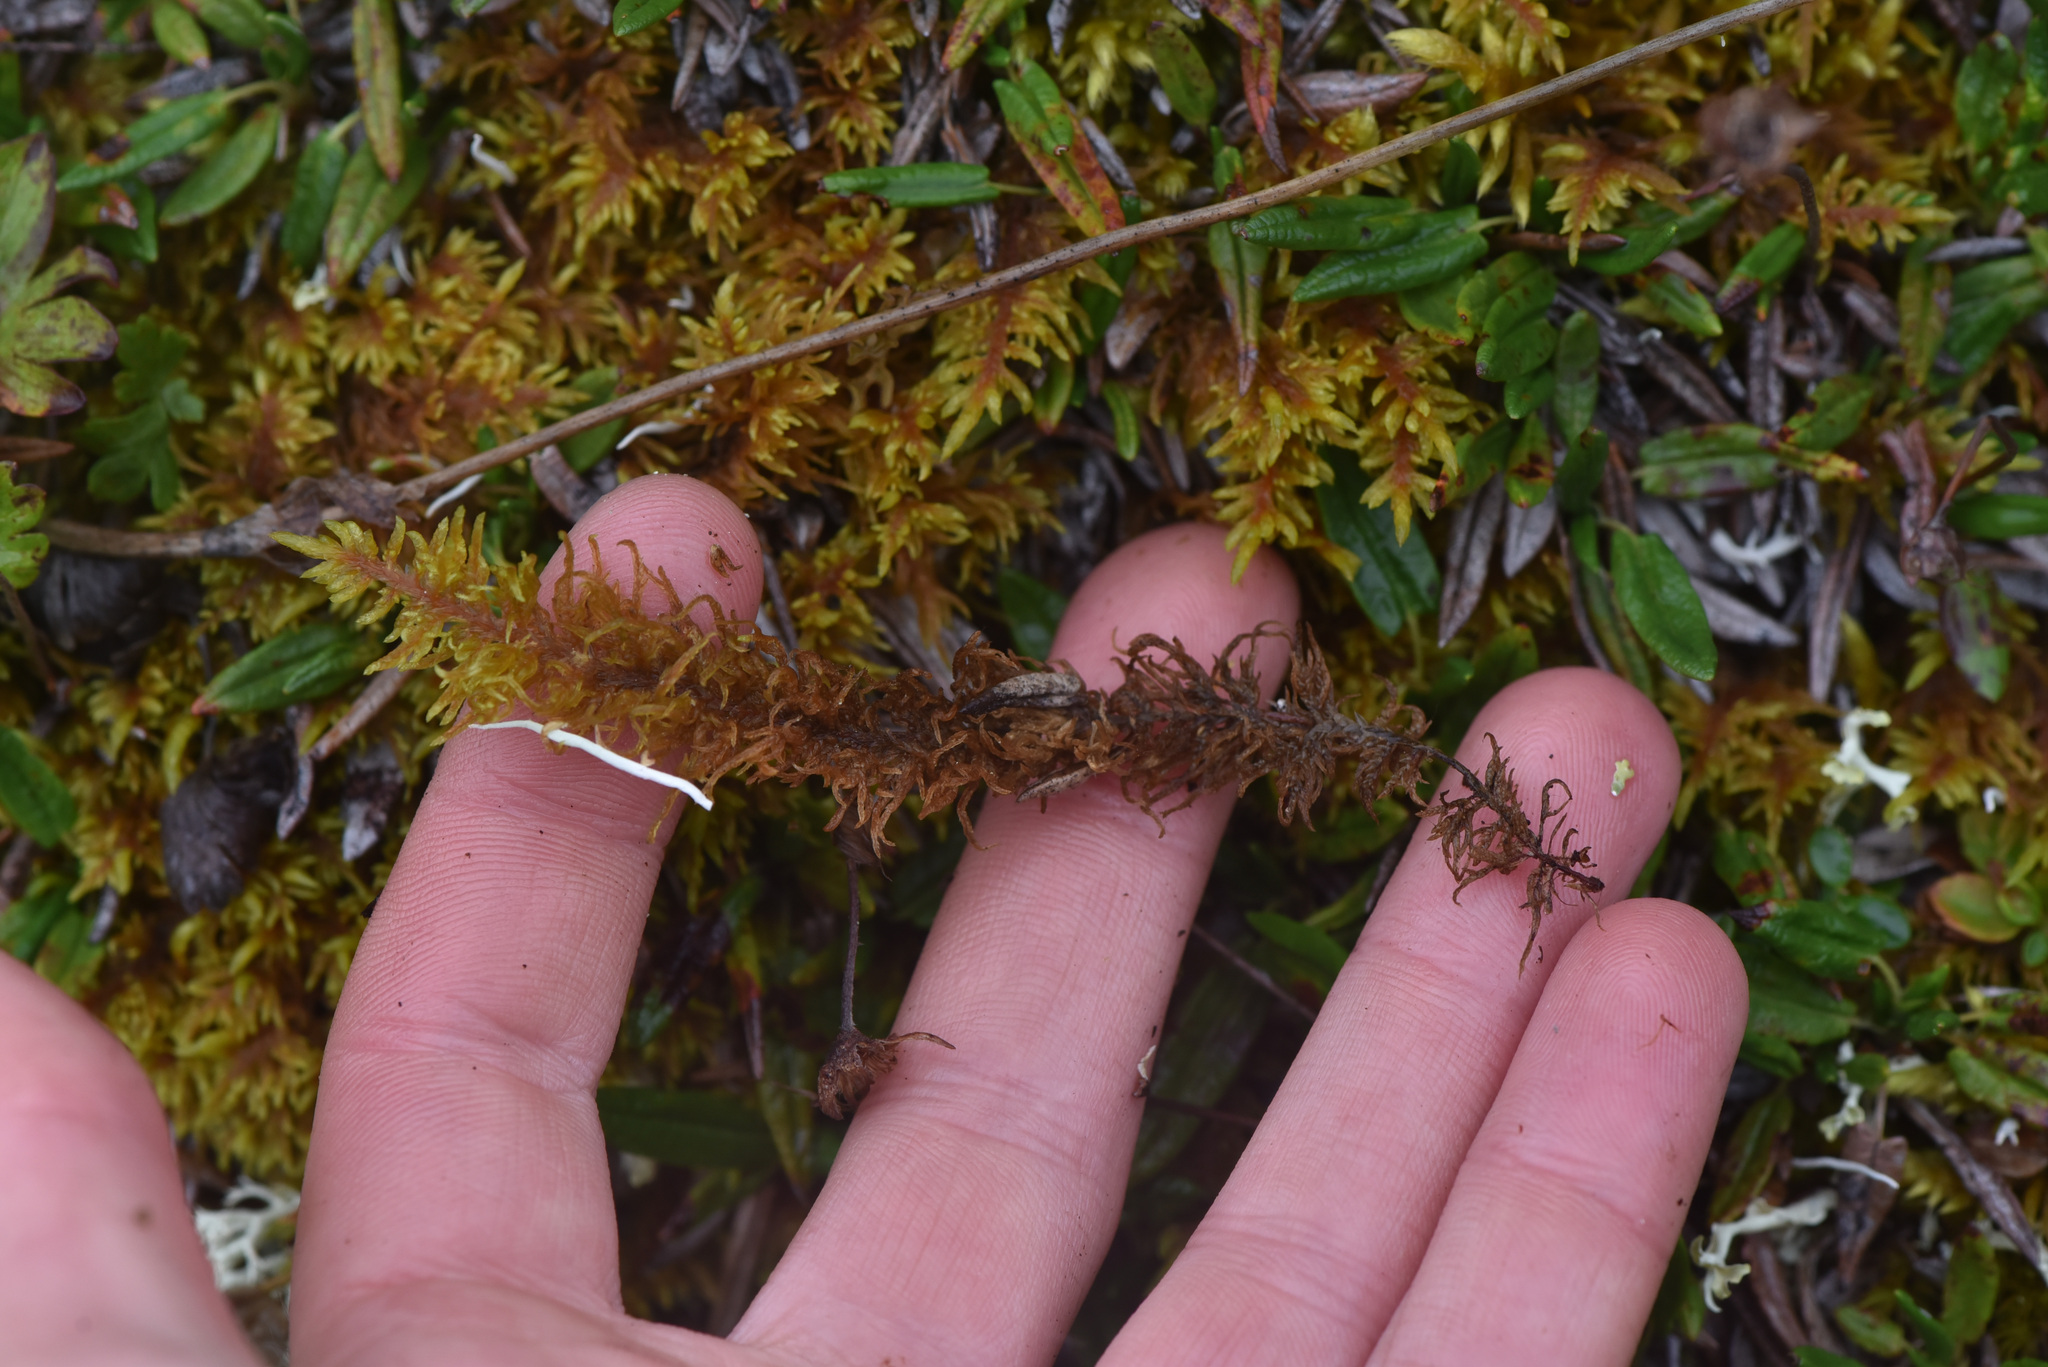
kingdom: Plantae
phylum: Bryophyta
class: Bryopsida
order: Hypnales
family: Hylocomiaceae
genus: Hylocomium
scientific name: Hylocomium splendens
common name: Stairstep moss
